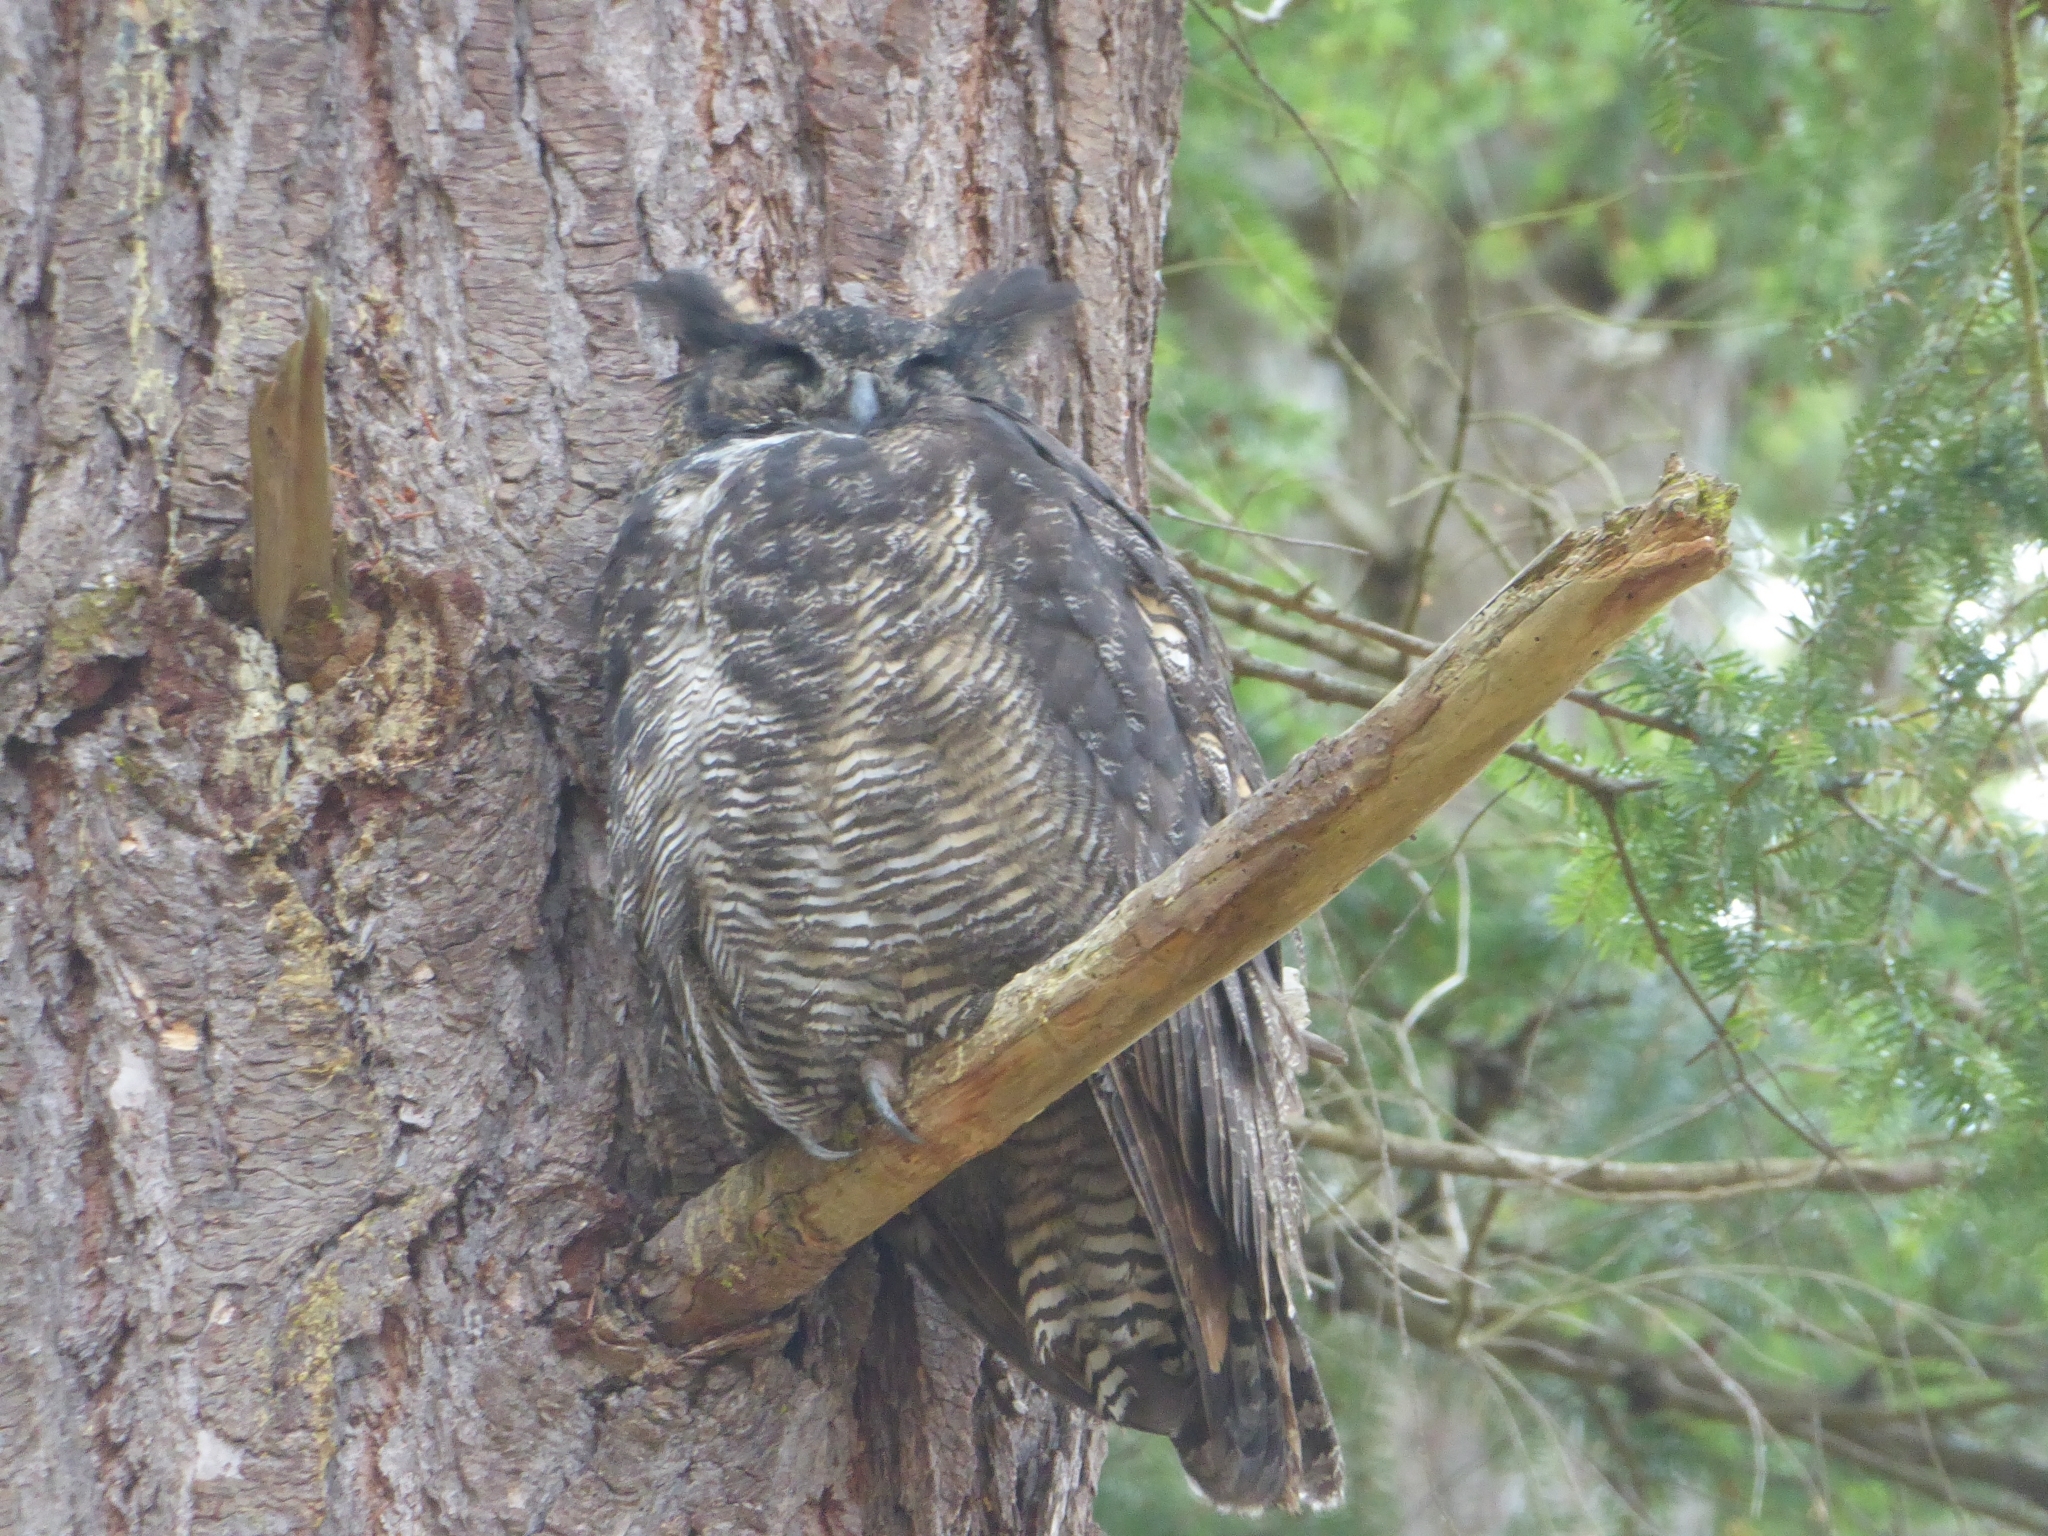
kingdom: Animalia
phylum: Chordata
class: Aves
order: Strigiformes
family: Strigidae
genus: Bubo
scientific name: Bubo virginianus
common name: Great horned owl
